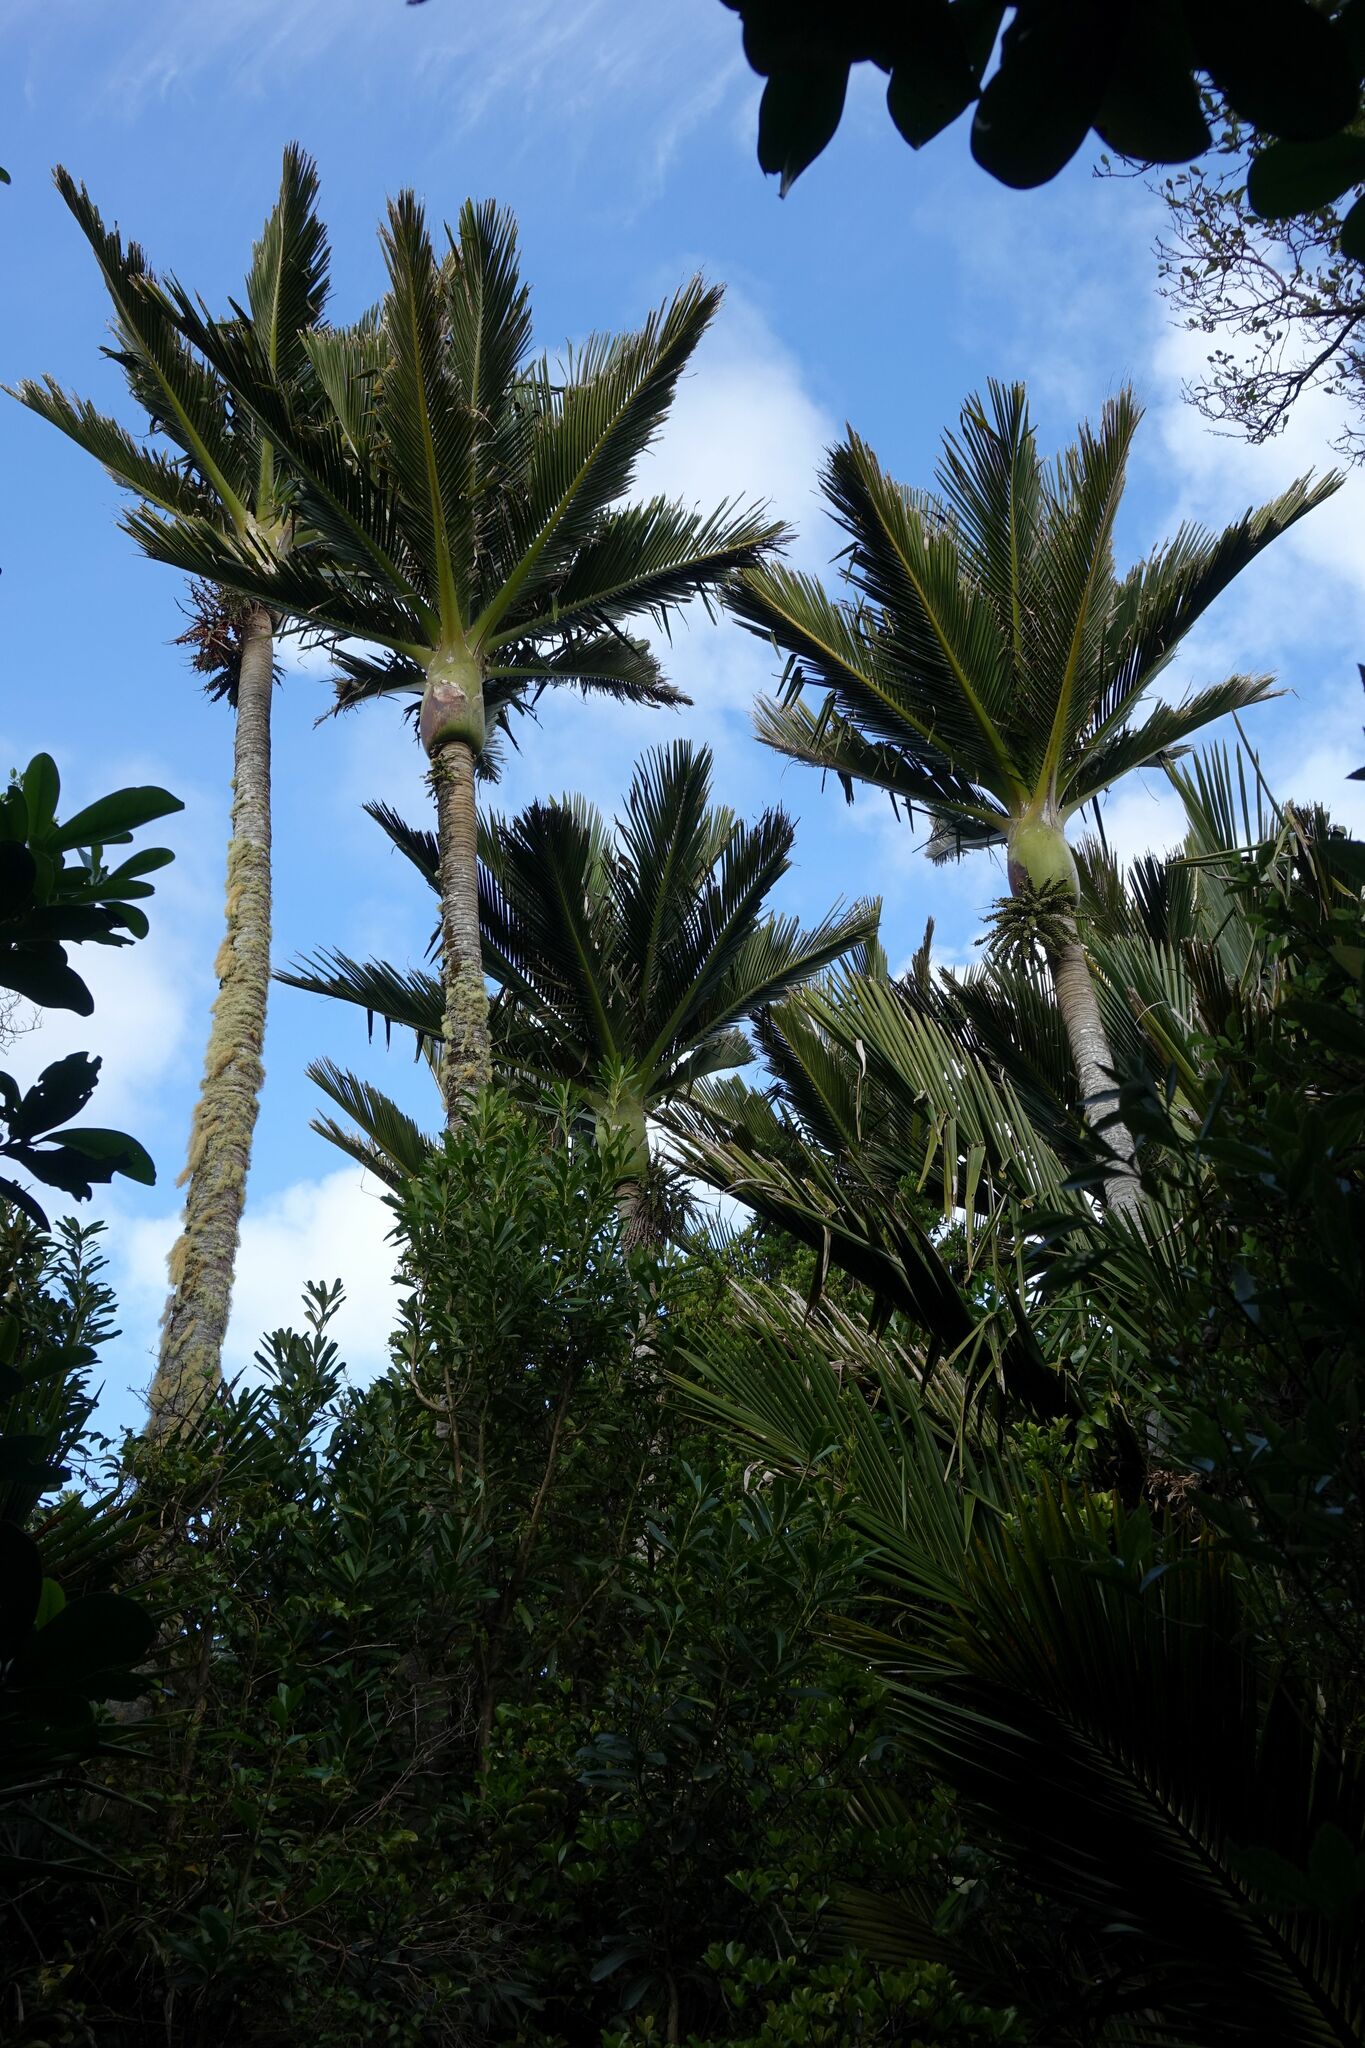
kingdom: Plantae
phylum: Tracheophyta
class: Liliopsida
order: Arecales
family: Arecaceae
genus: Rhopalostylis
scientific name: Rhopalostylis sapida
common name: Feather-duster palm
